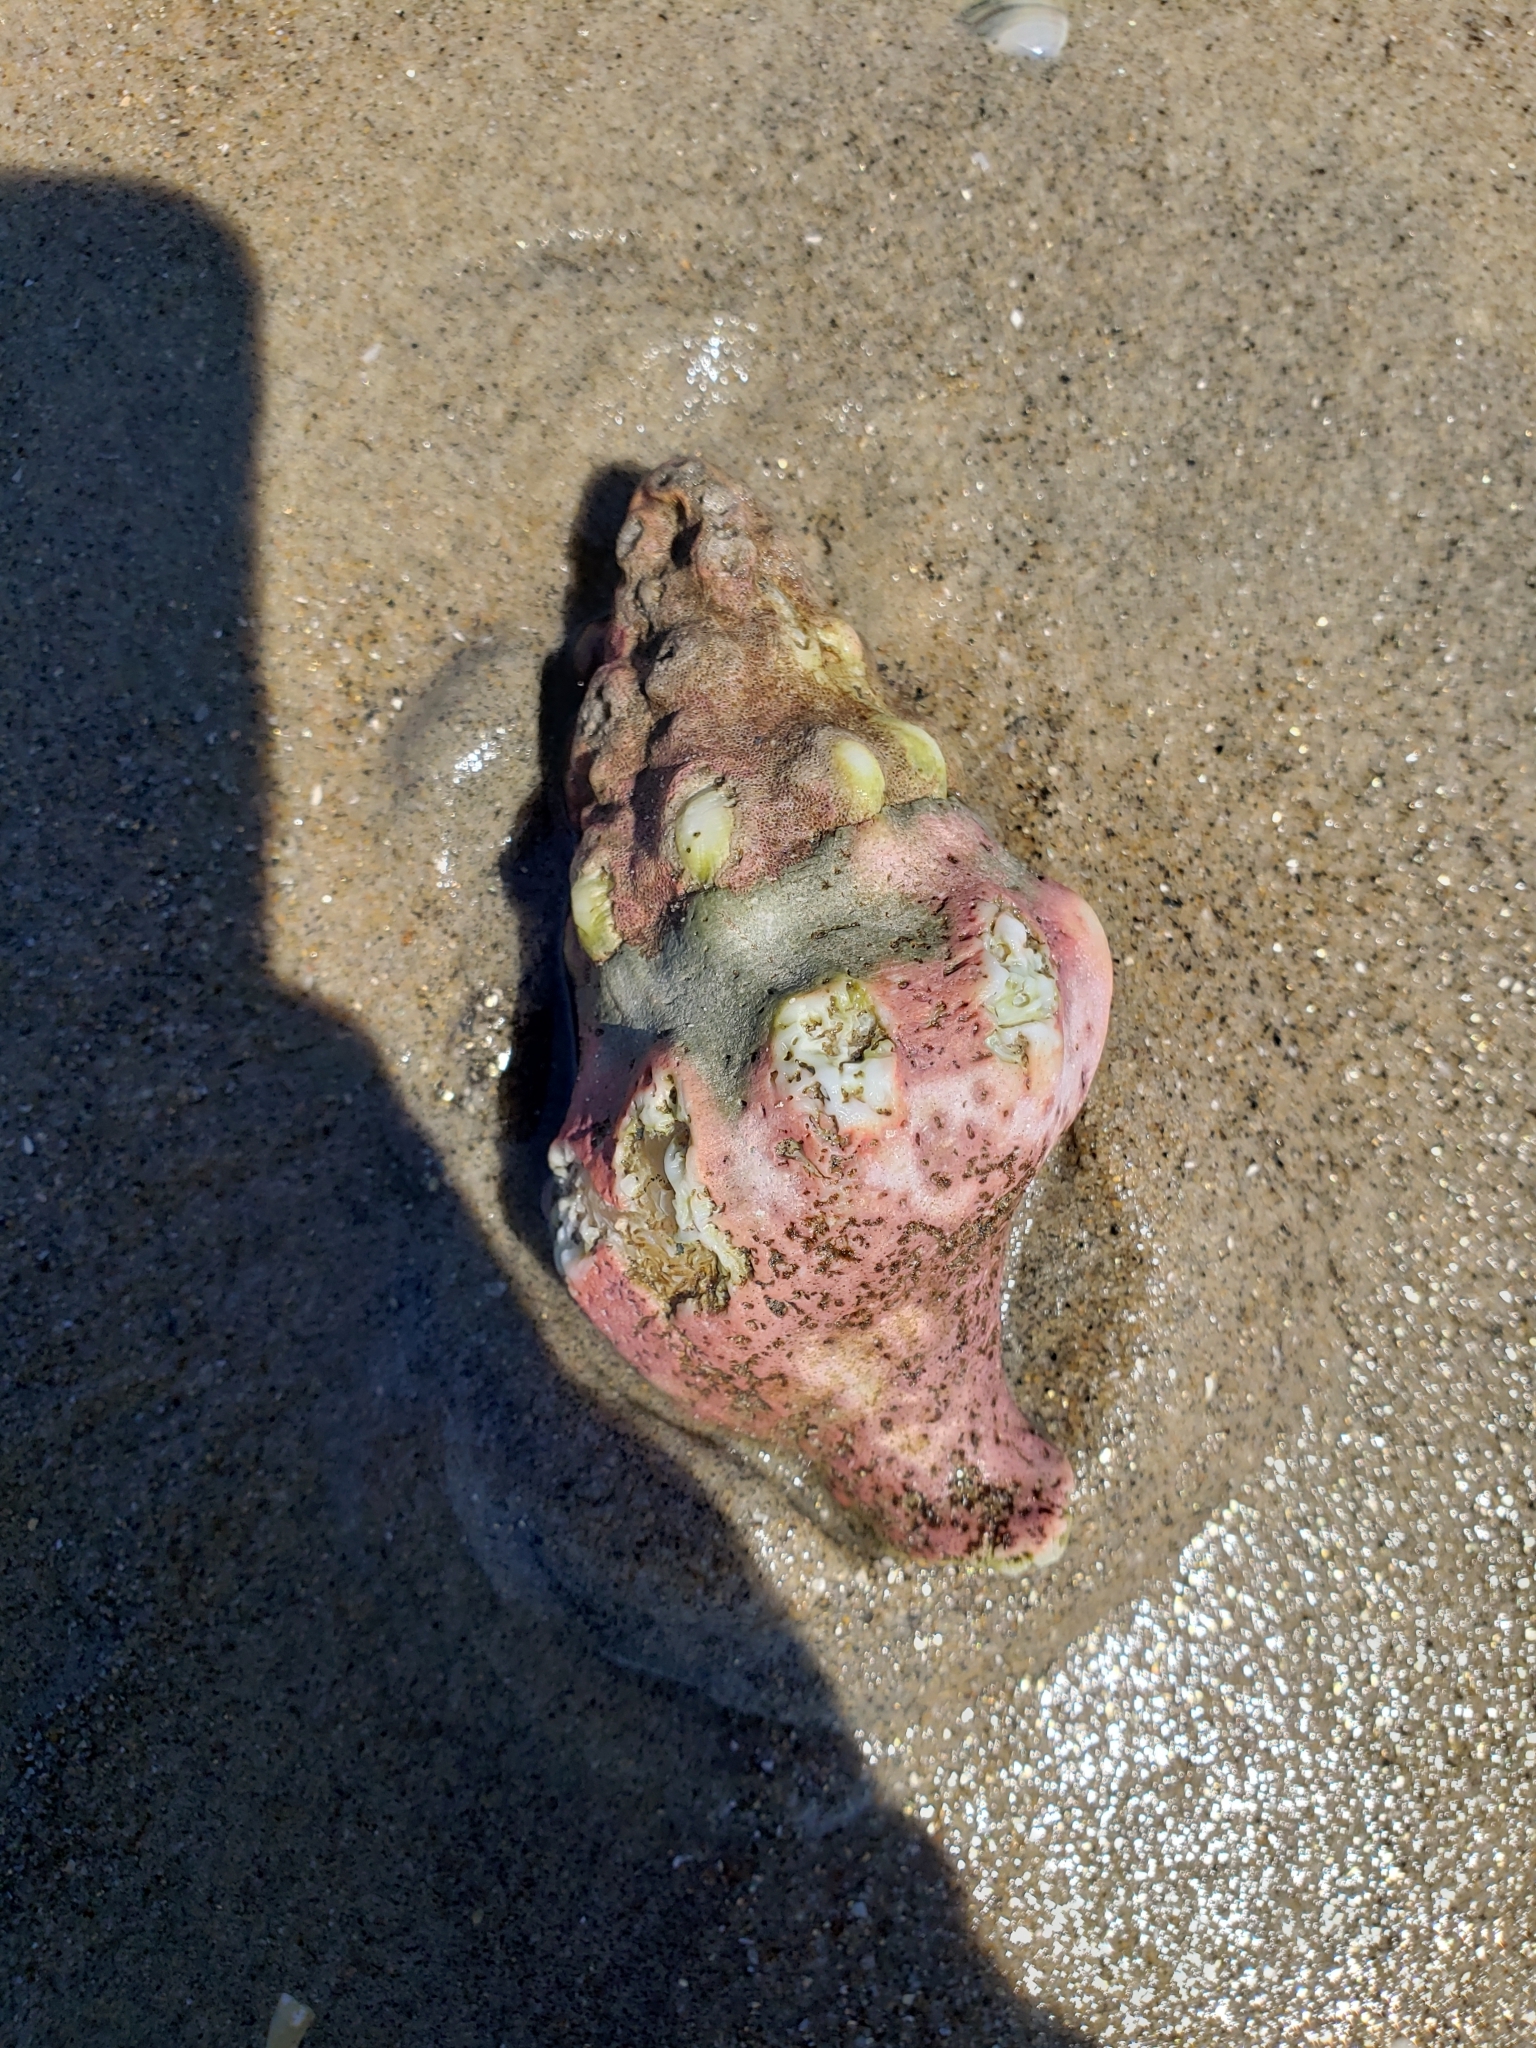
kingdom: Animalia
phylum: Mollusca
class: Gastropoda
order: Neogastropoda
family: Austrosiphonidae
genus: Kelletia
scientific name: Kelletia kelletii
